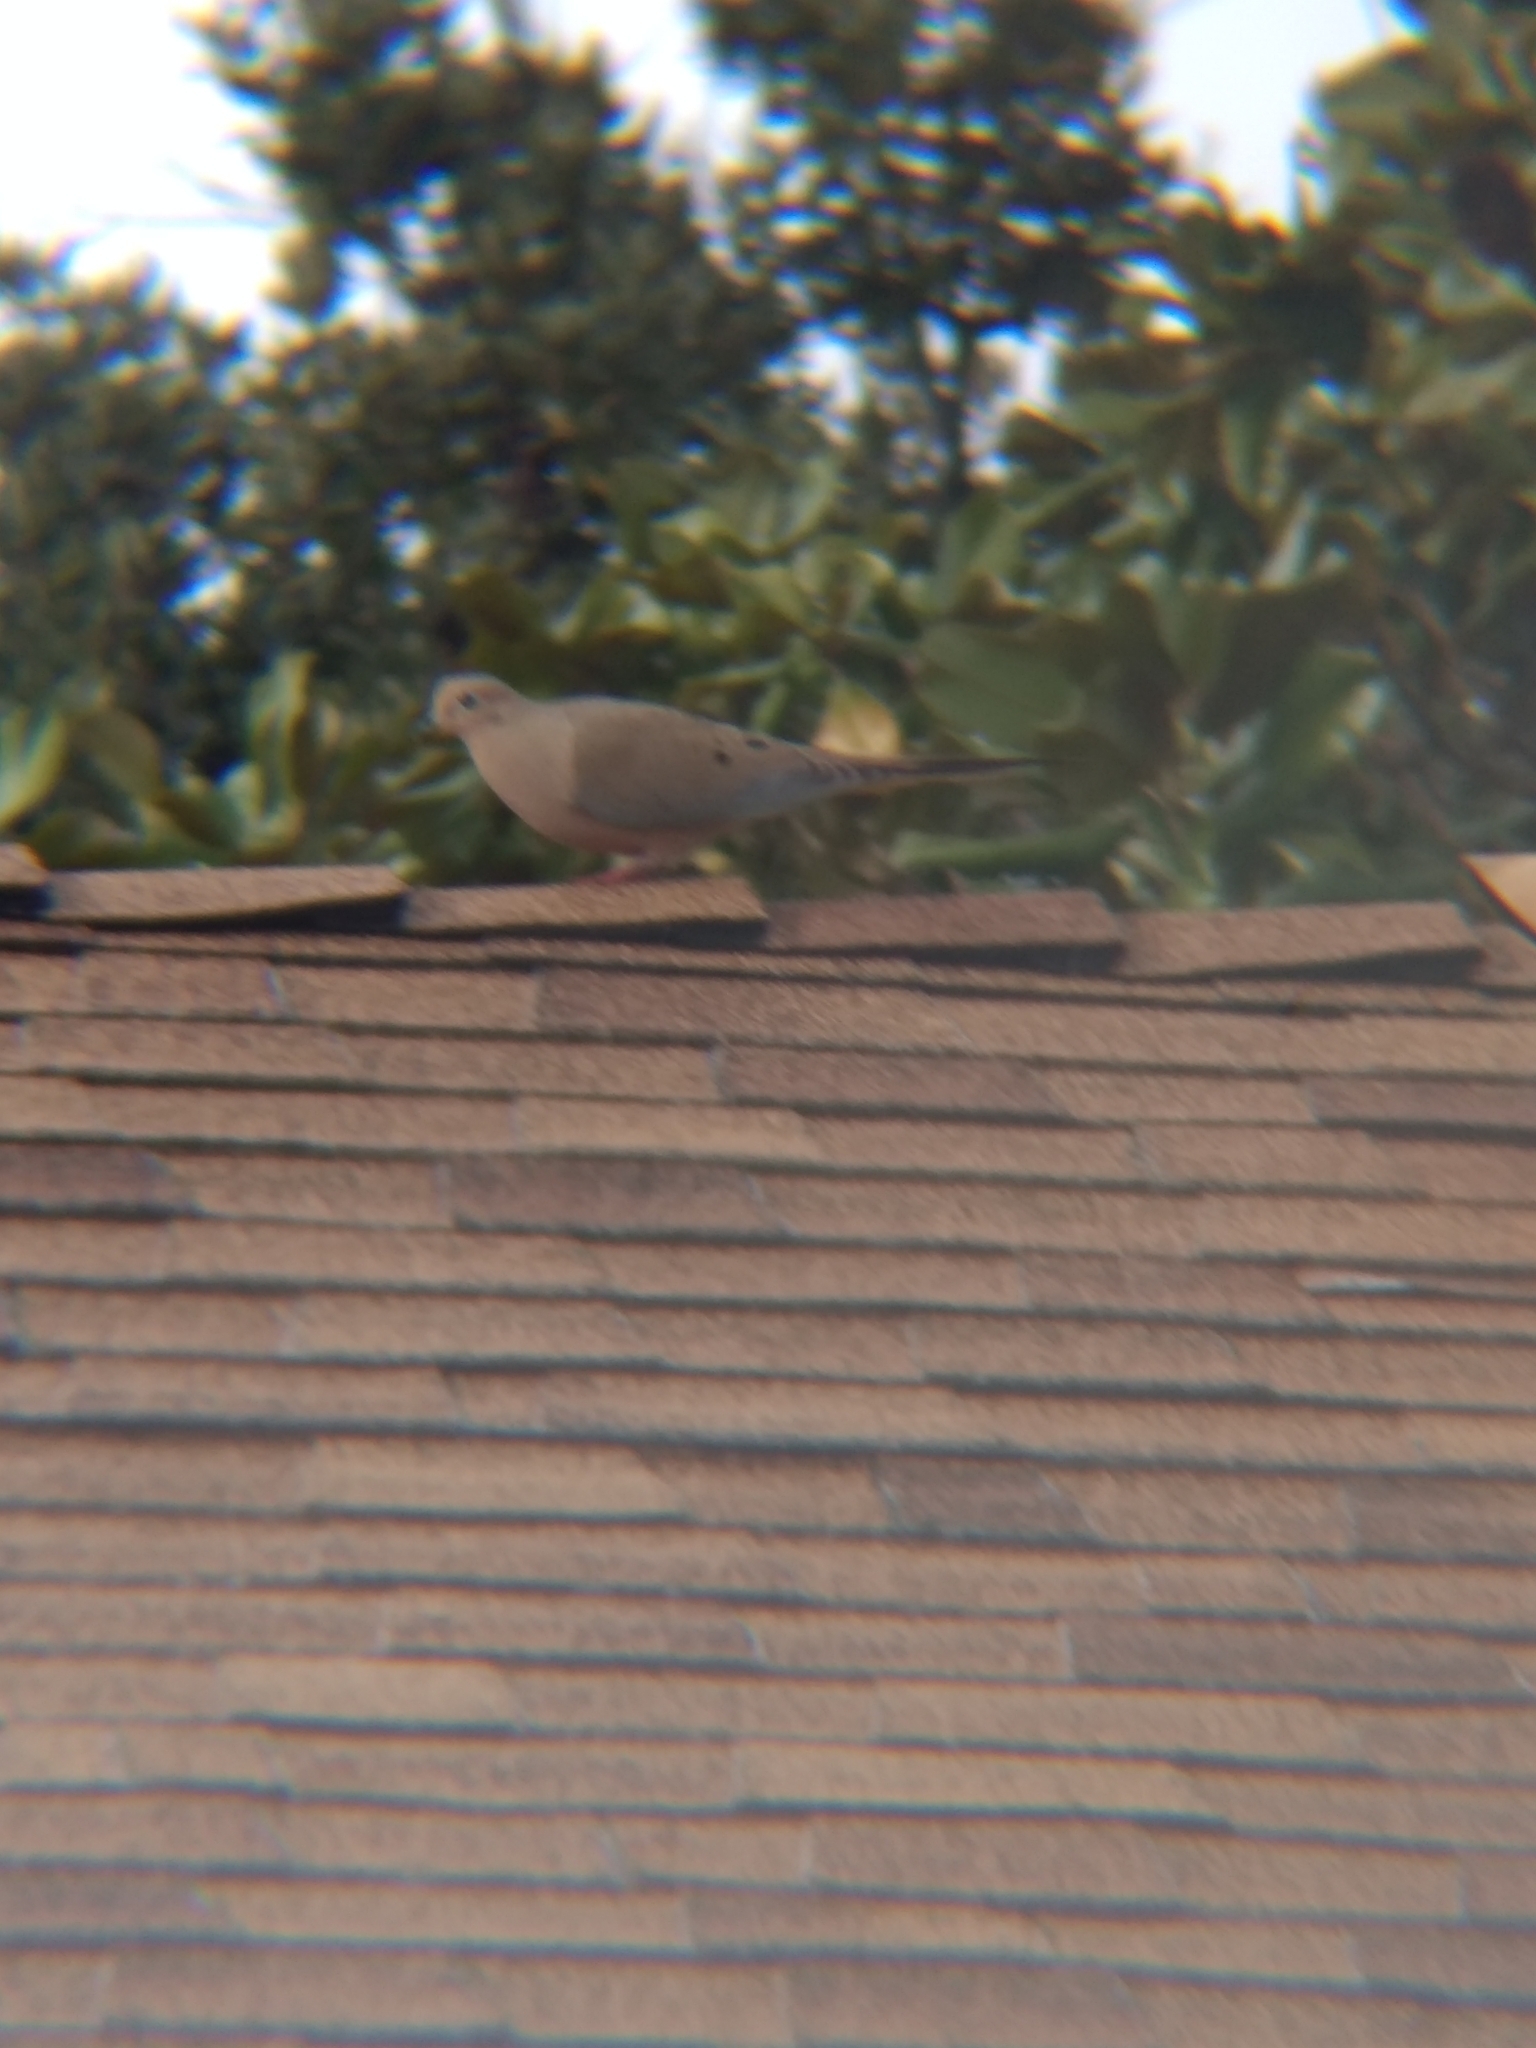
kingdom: Animalia
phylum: Chordata
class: Aves
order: Columbiformes
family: Columbidae
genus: Zenaida
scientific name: Zenaida macroura
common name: Mourning dove
